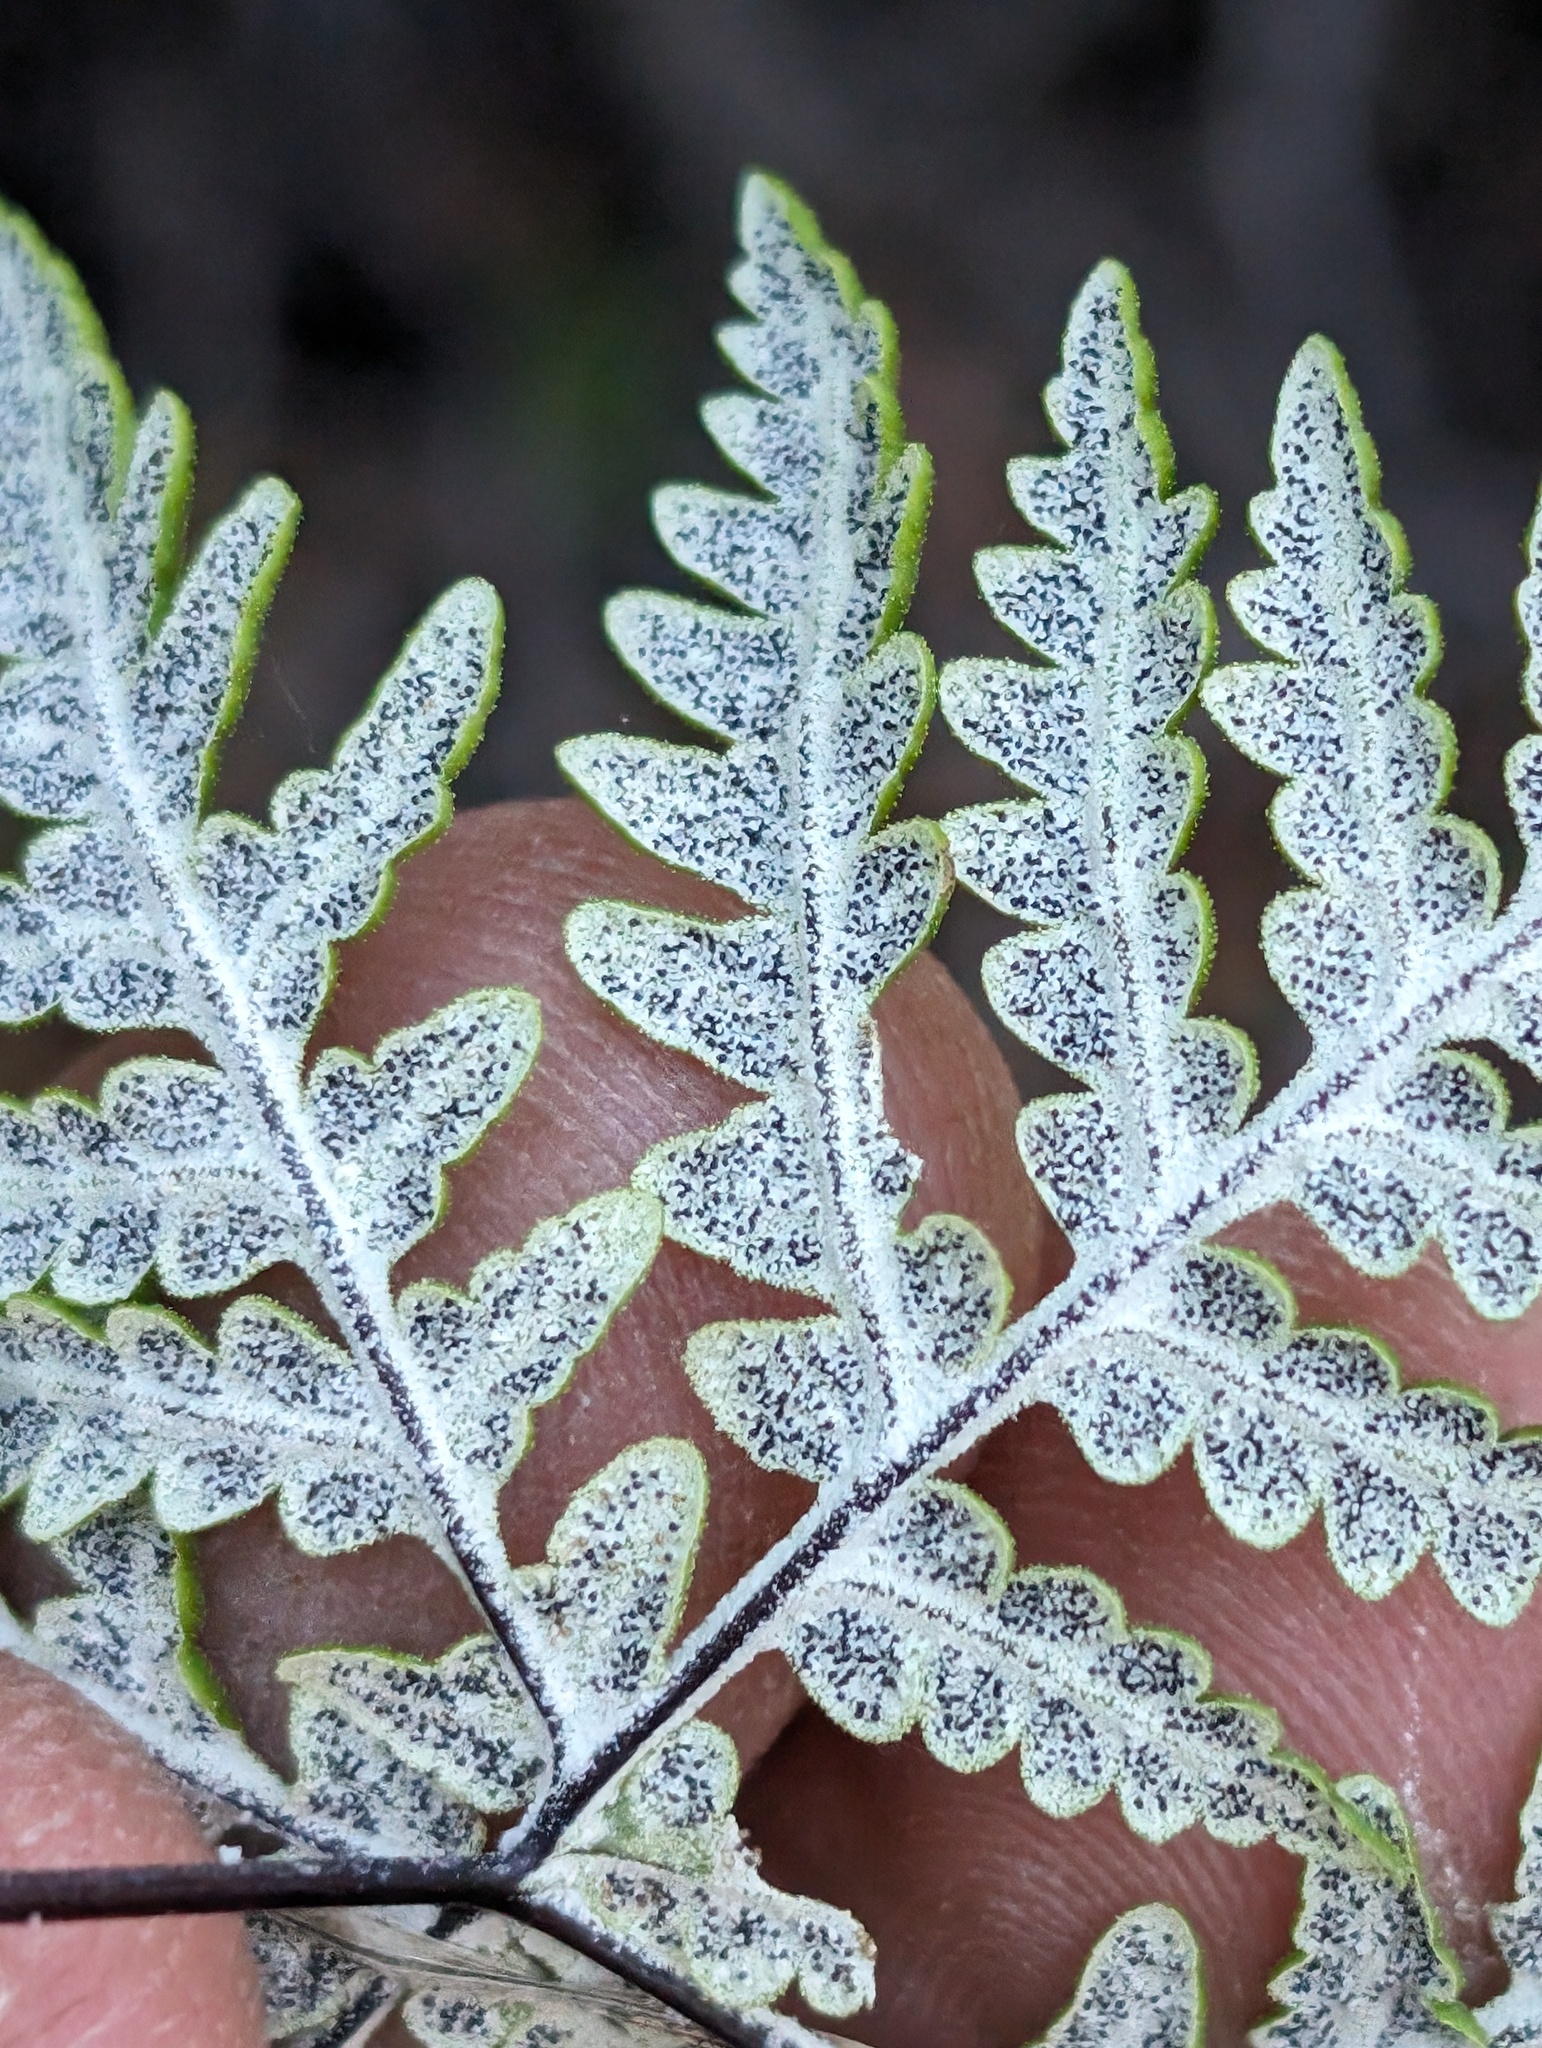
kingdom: Plantae
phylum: Tracheophyta
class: Polypodiopsida
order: Polypodiales
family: Pteridaceae
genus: Pentagramma
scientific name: Pentagramma maxonii
